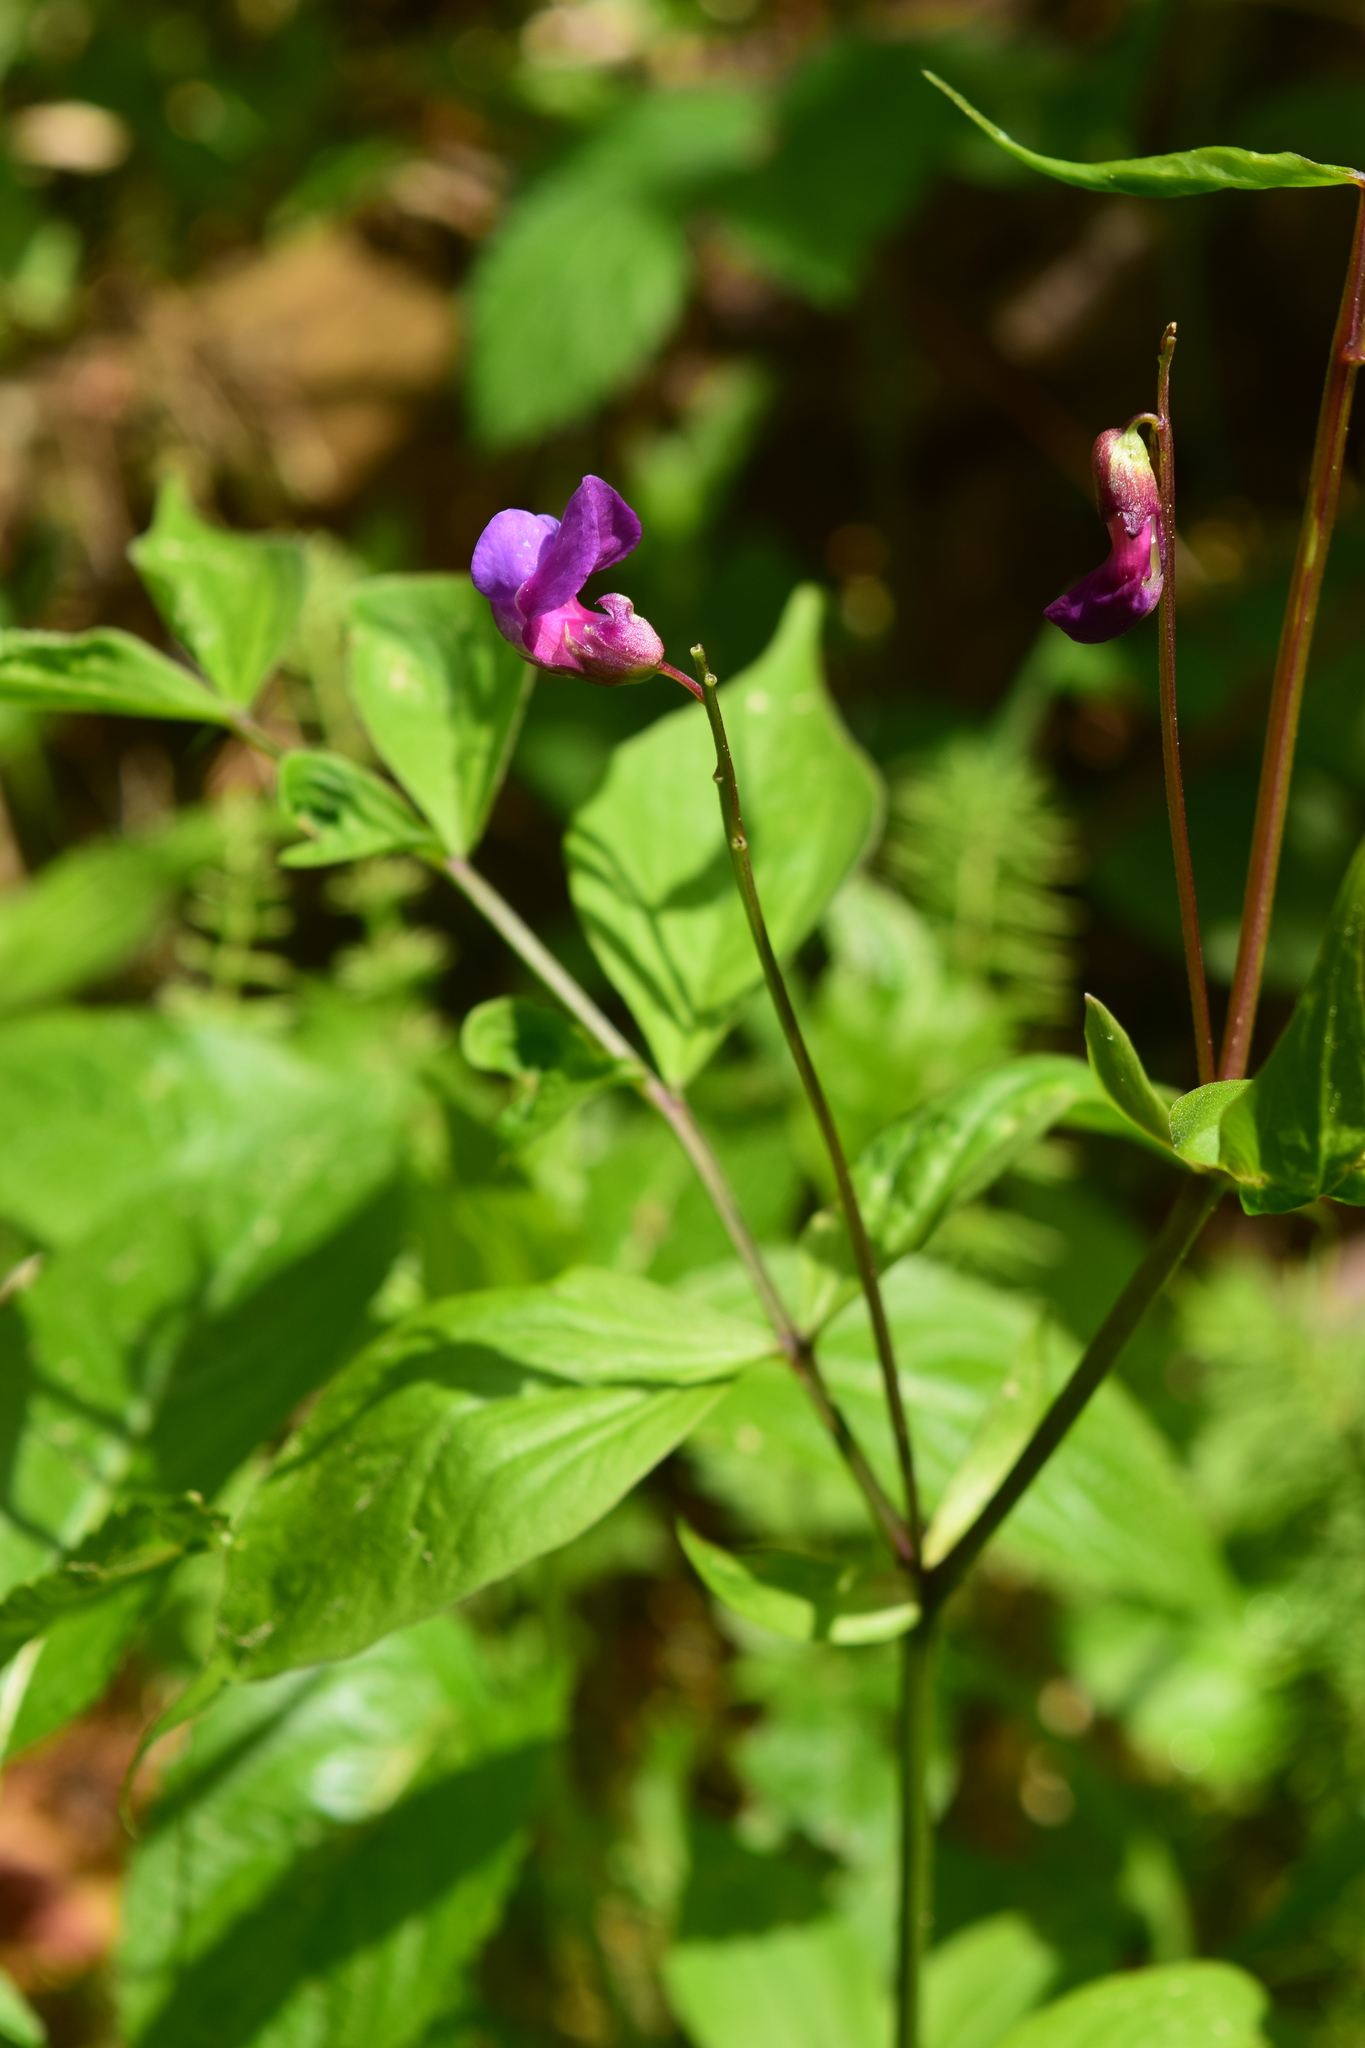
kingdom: Plantae
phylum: Tracheophyta
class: Magnoliopsida
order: Fabales
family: Fabaceae
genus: Lathyrus
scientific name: Lathyrus vernus
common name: Spring pea
